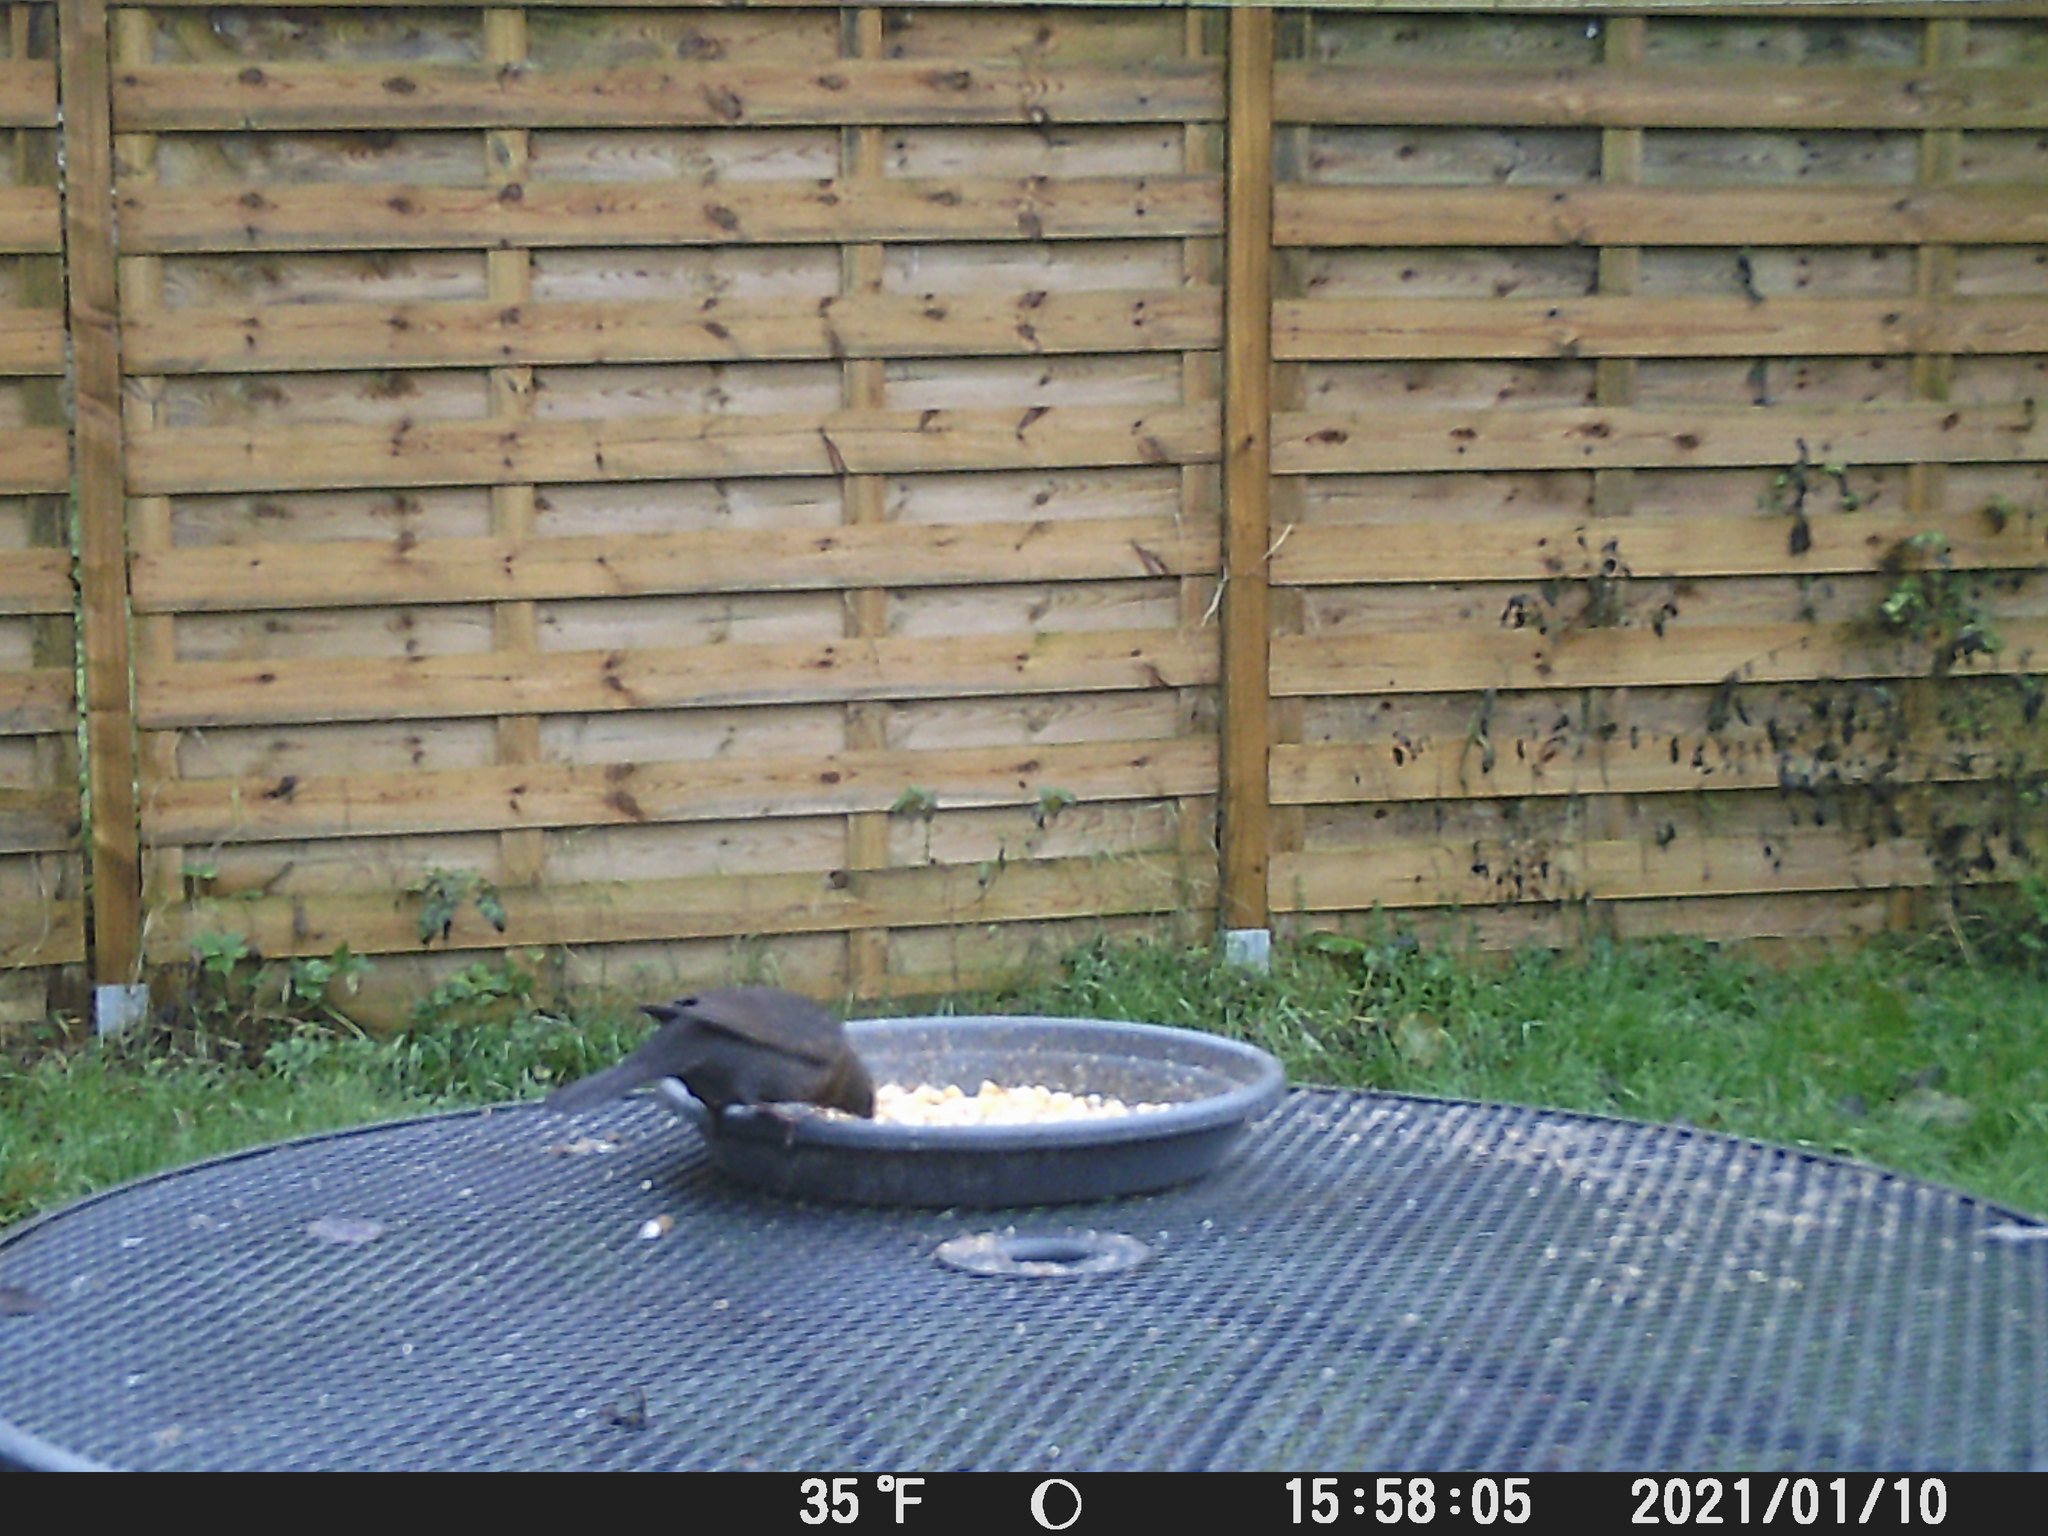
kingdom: Animalia
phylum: Chordata
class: Aves
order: Passeriformes
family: Turdidae
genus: Turdus
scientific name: Turdus merula
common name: Common blackbird
